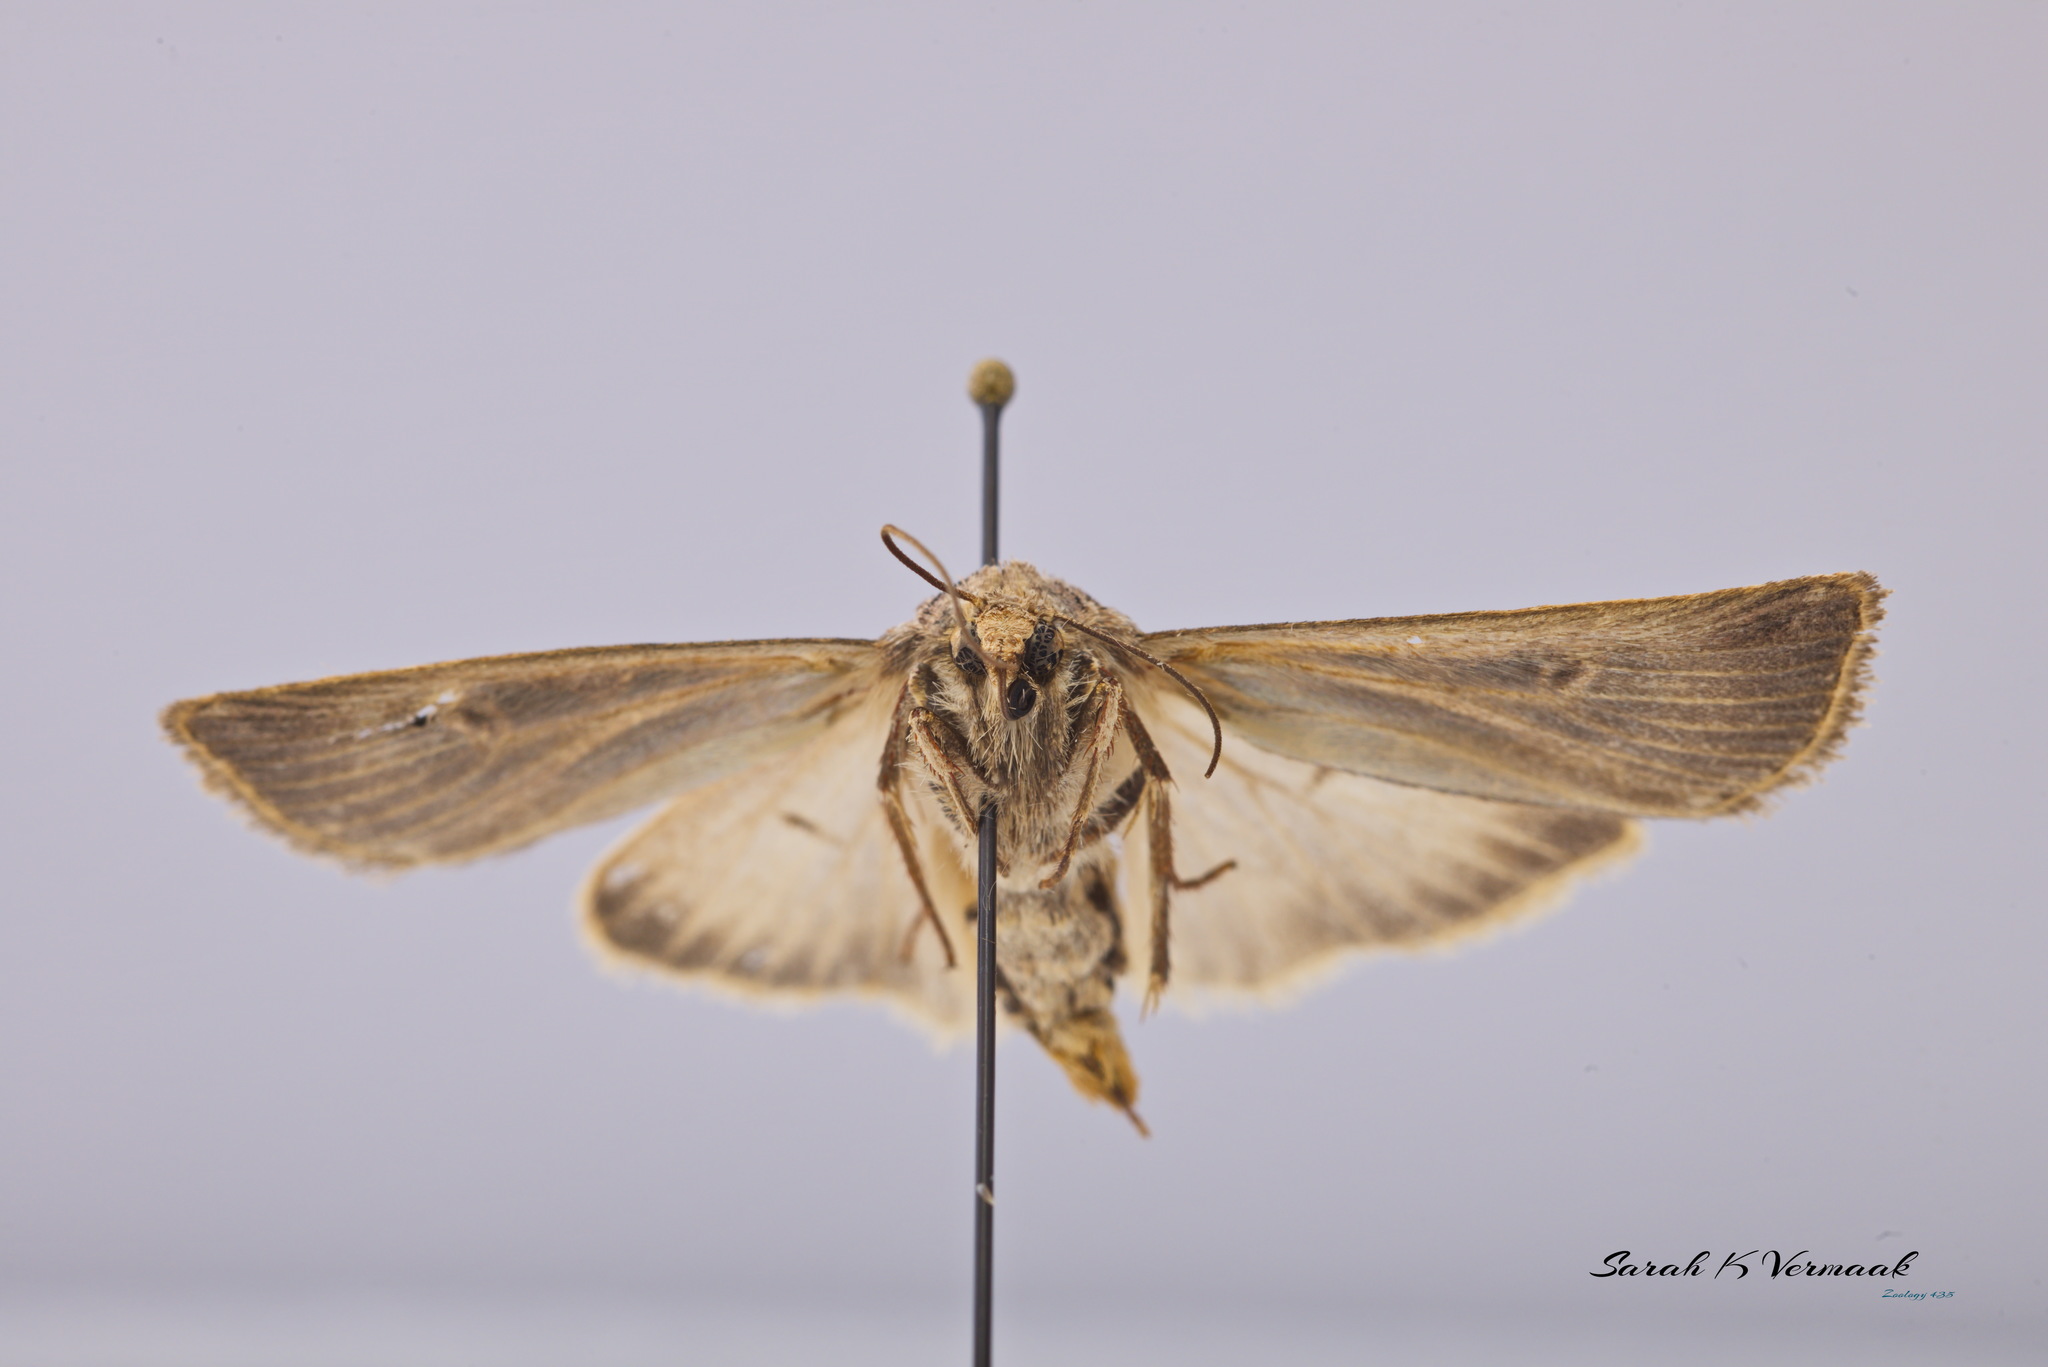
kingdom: Animalia
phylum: Arthropoda
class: Insecta
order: Lepidoptera
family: Noctuidae
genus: Feltia
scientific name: Feltia jaculifera
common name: Dingy cutworm moth
